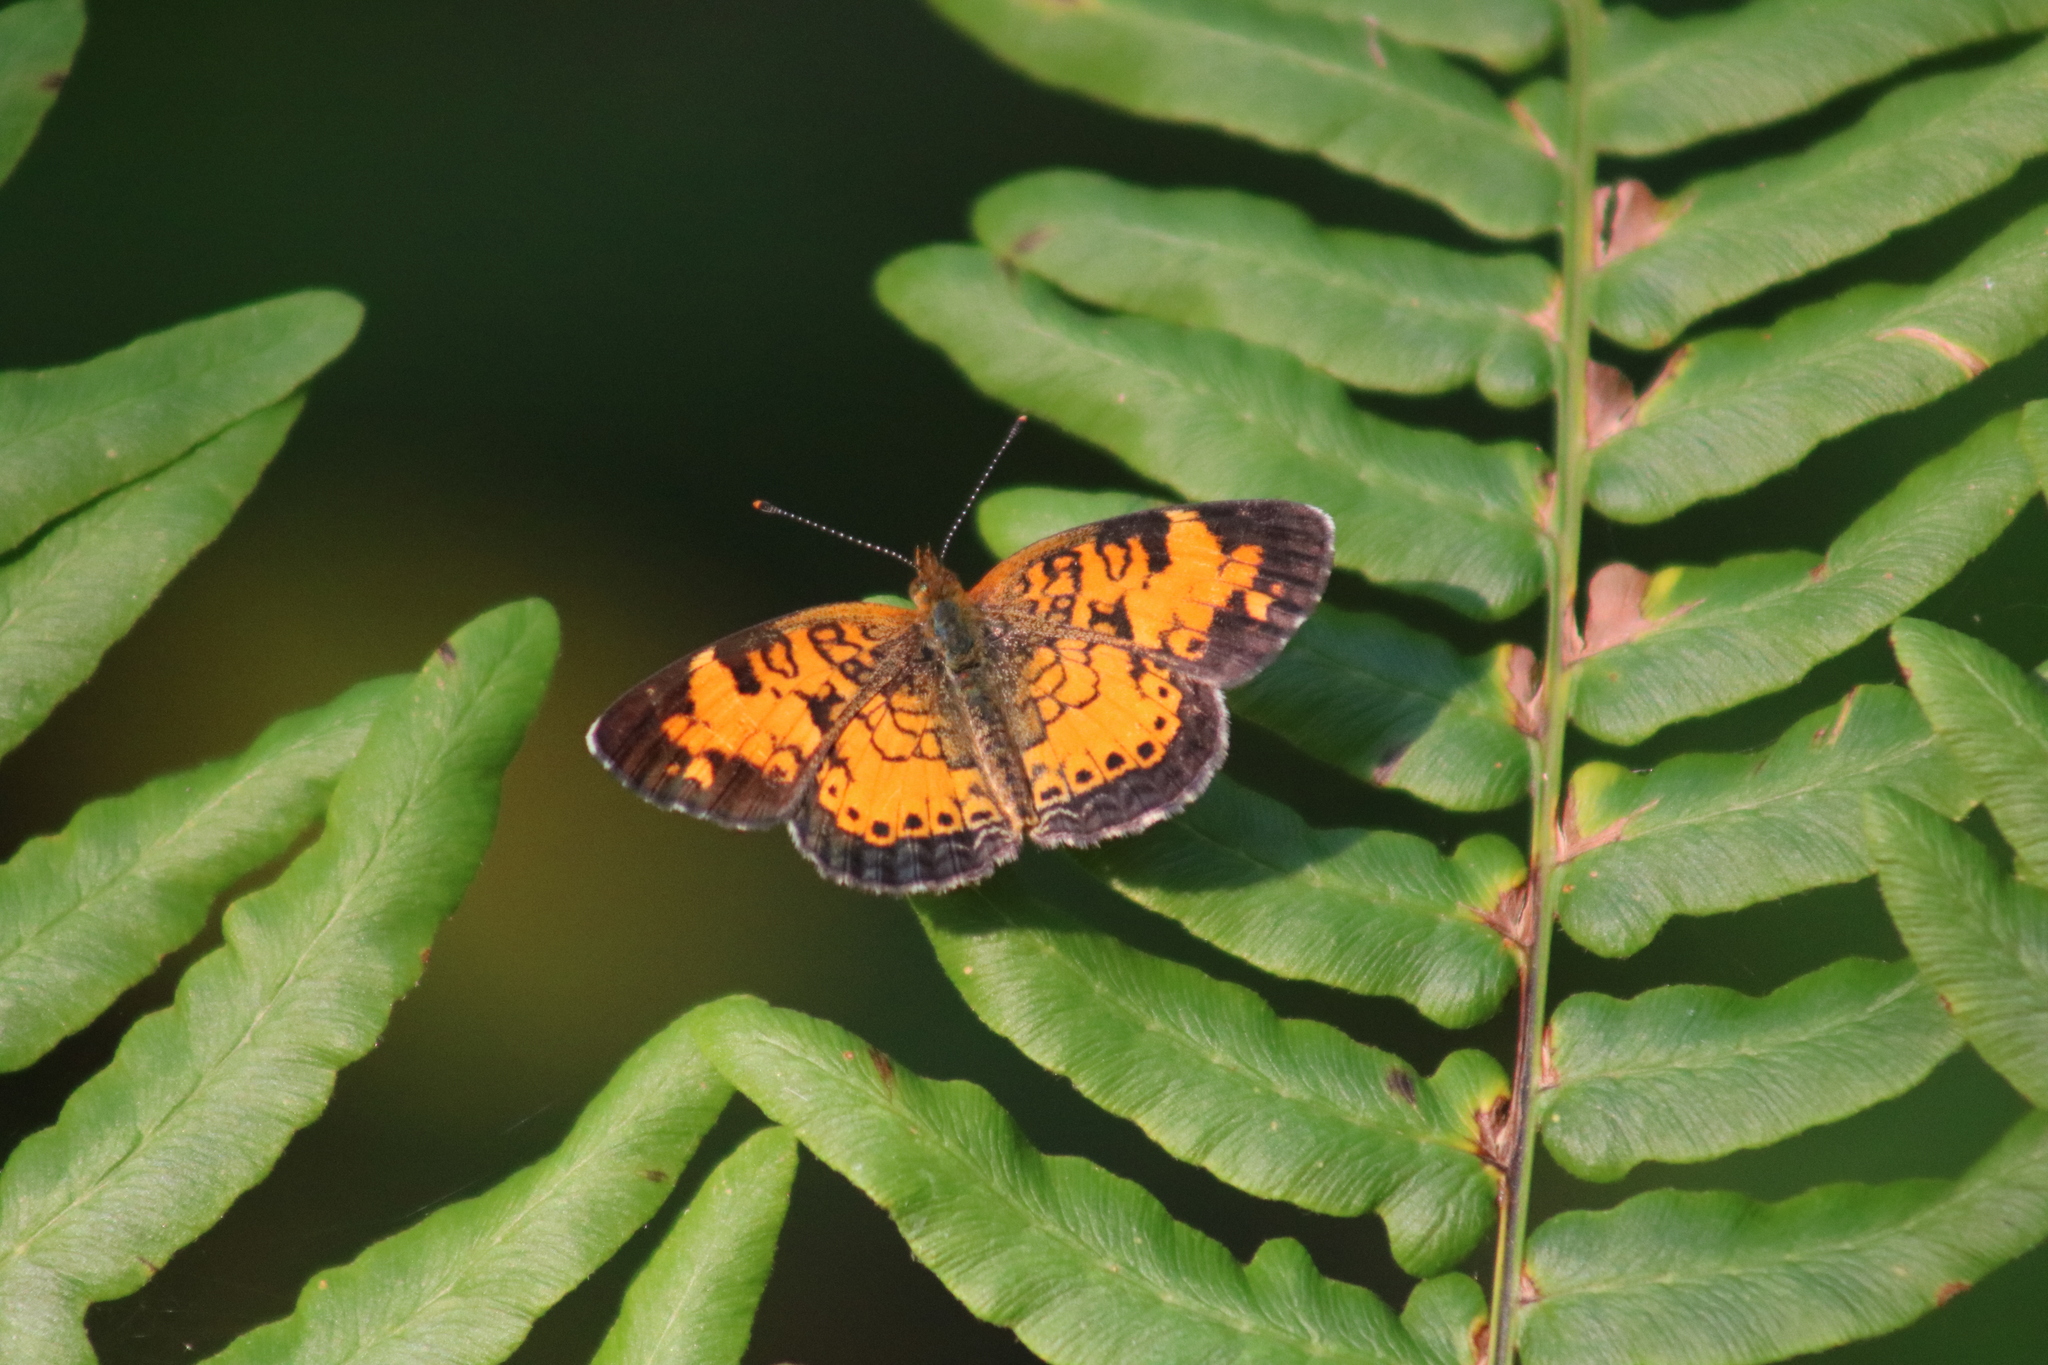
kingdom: Animalia
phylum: Arthropoda
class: Insecta
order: Lepidoptera
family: Nymphalidae
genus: Phyciodes
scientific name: Phyciodes tharos
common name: Pearl crescent
